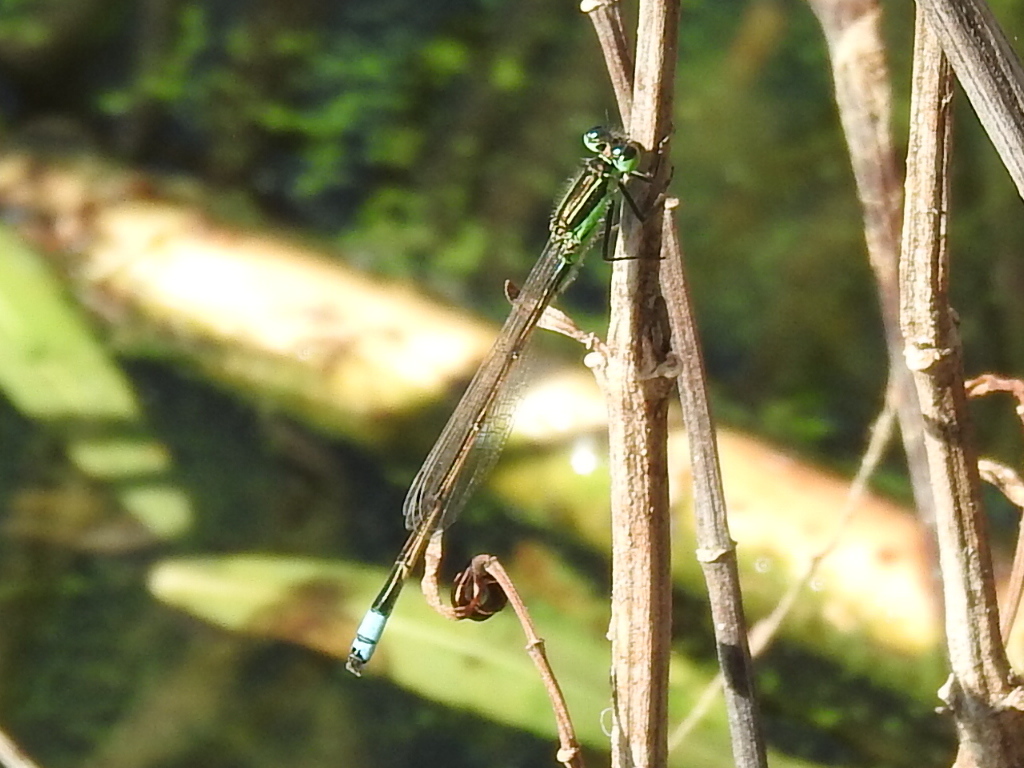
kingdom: Animalia
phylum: Arthropoda
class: Insecta
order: Odonata
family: Coenagrionidae
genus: Ischnura
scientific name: Ischnura ramburii
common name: Rambur's forktail
